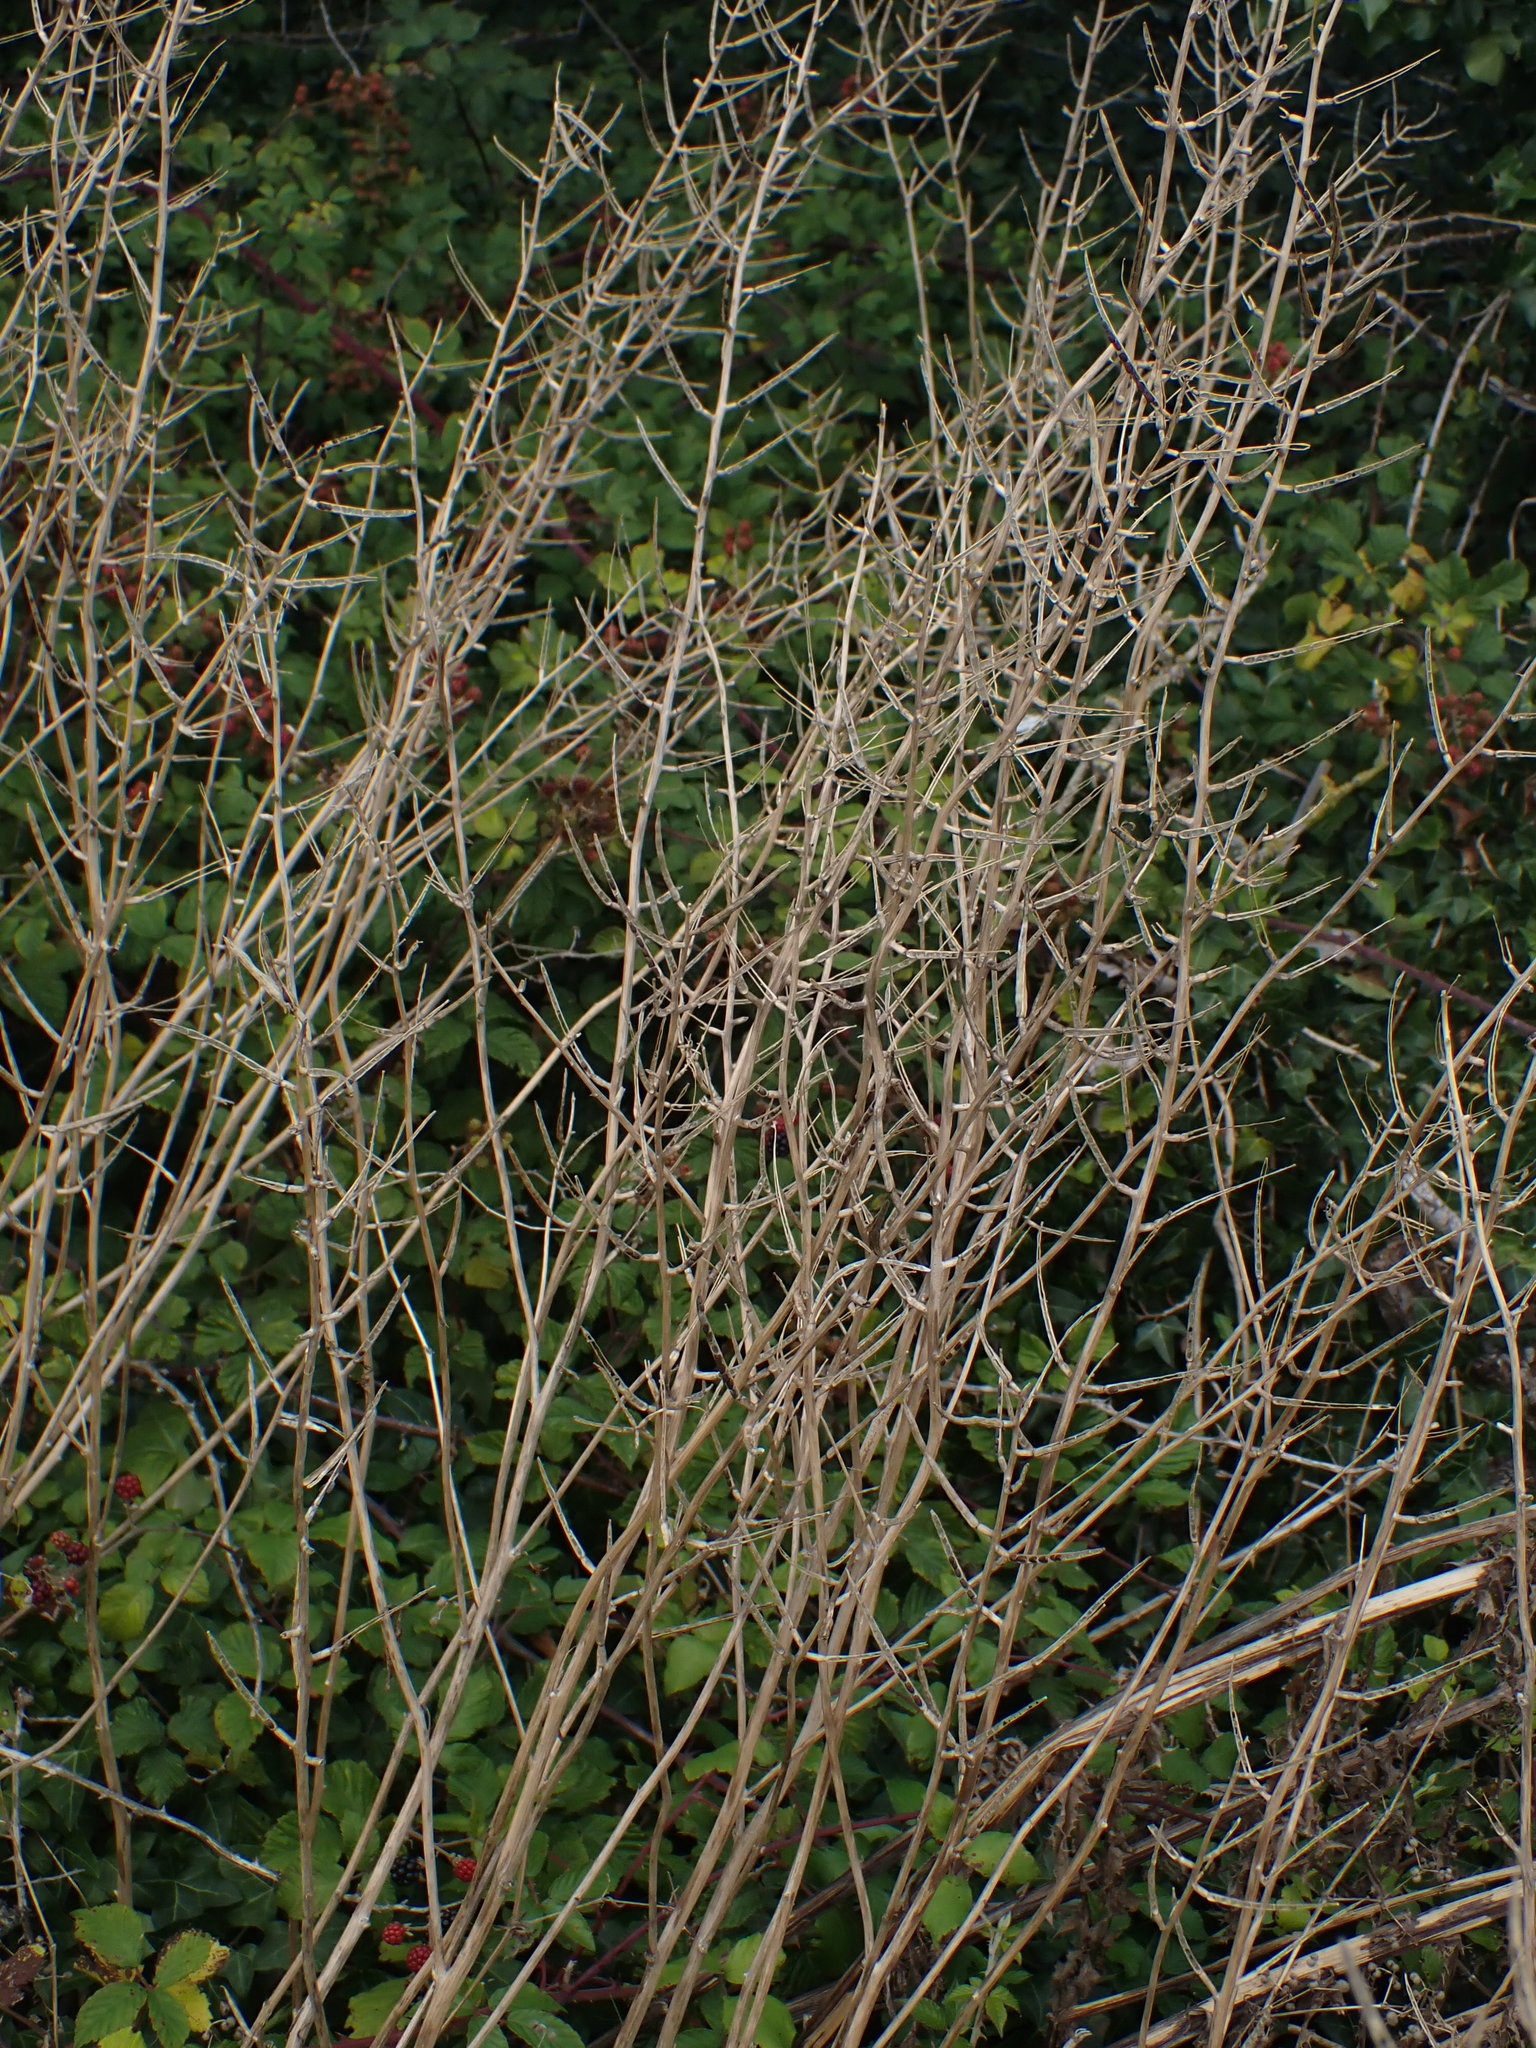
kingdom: Plantae
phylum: Tracheophyta
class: Magnoliopsida
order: Brassicales
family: Brassicaceae
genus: Alliaria
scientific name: Alliaria petiolata
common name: Garlic mustard
